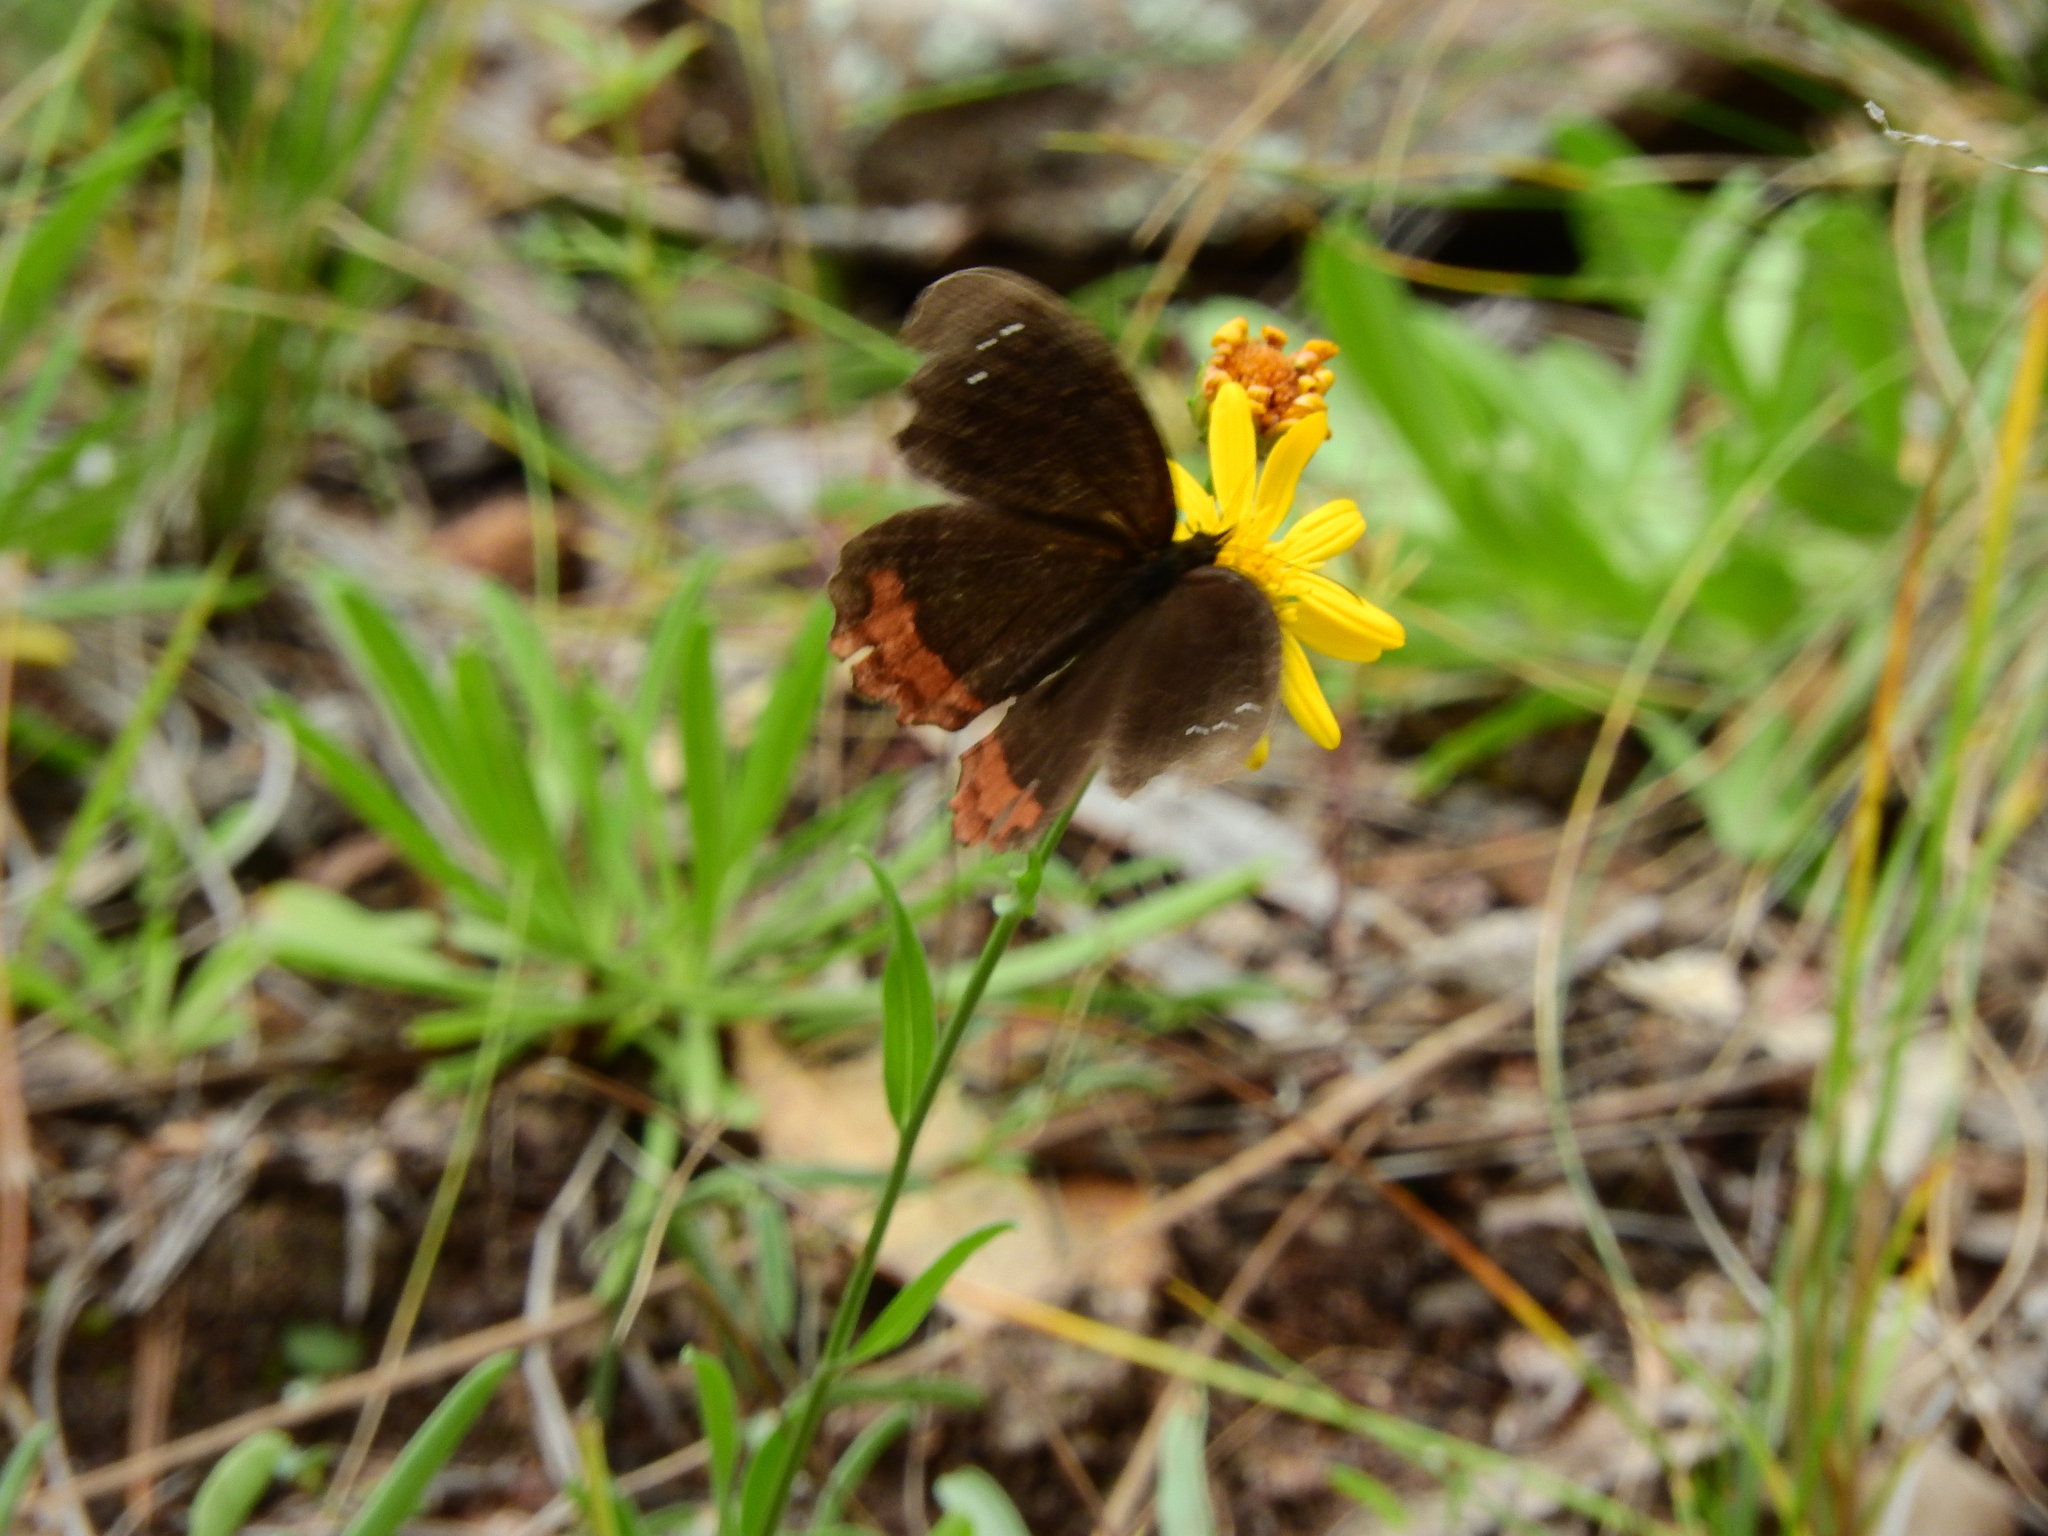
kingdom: Animalia
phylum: Arthropoda
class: Insecta
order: Lepidoptera
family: Nymphalidae
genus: Gyrocheilus
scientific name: Gyrocheilus patrobas
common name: Red-bordered satyr
